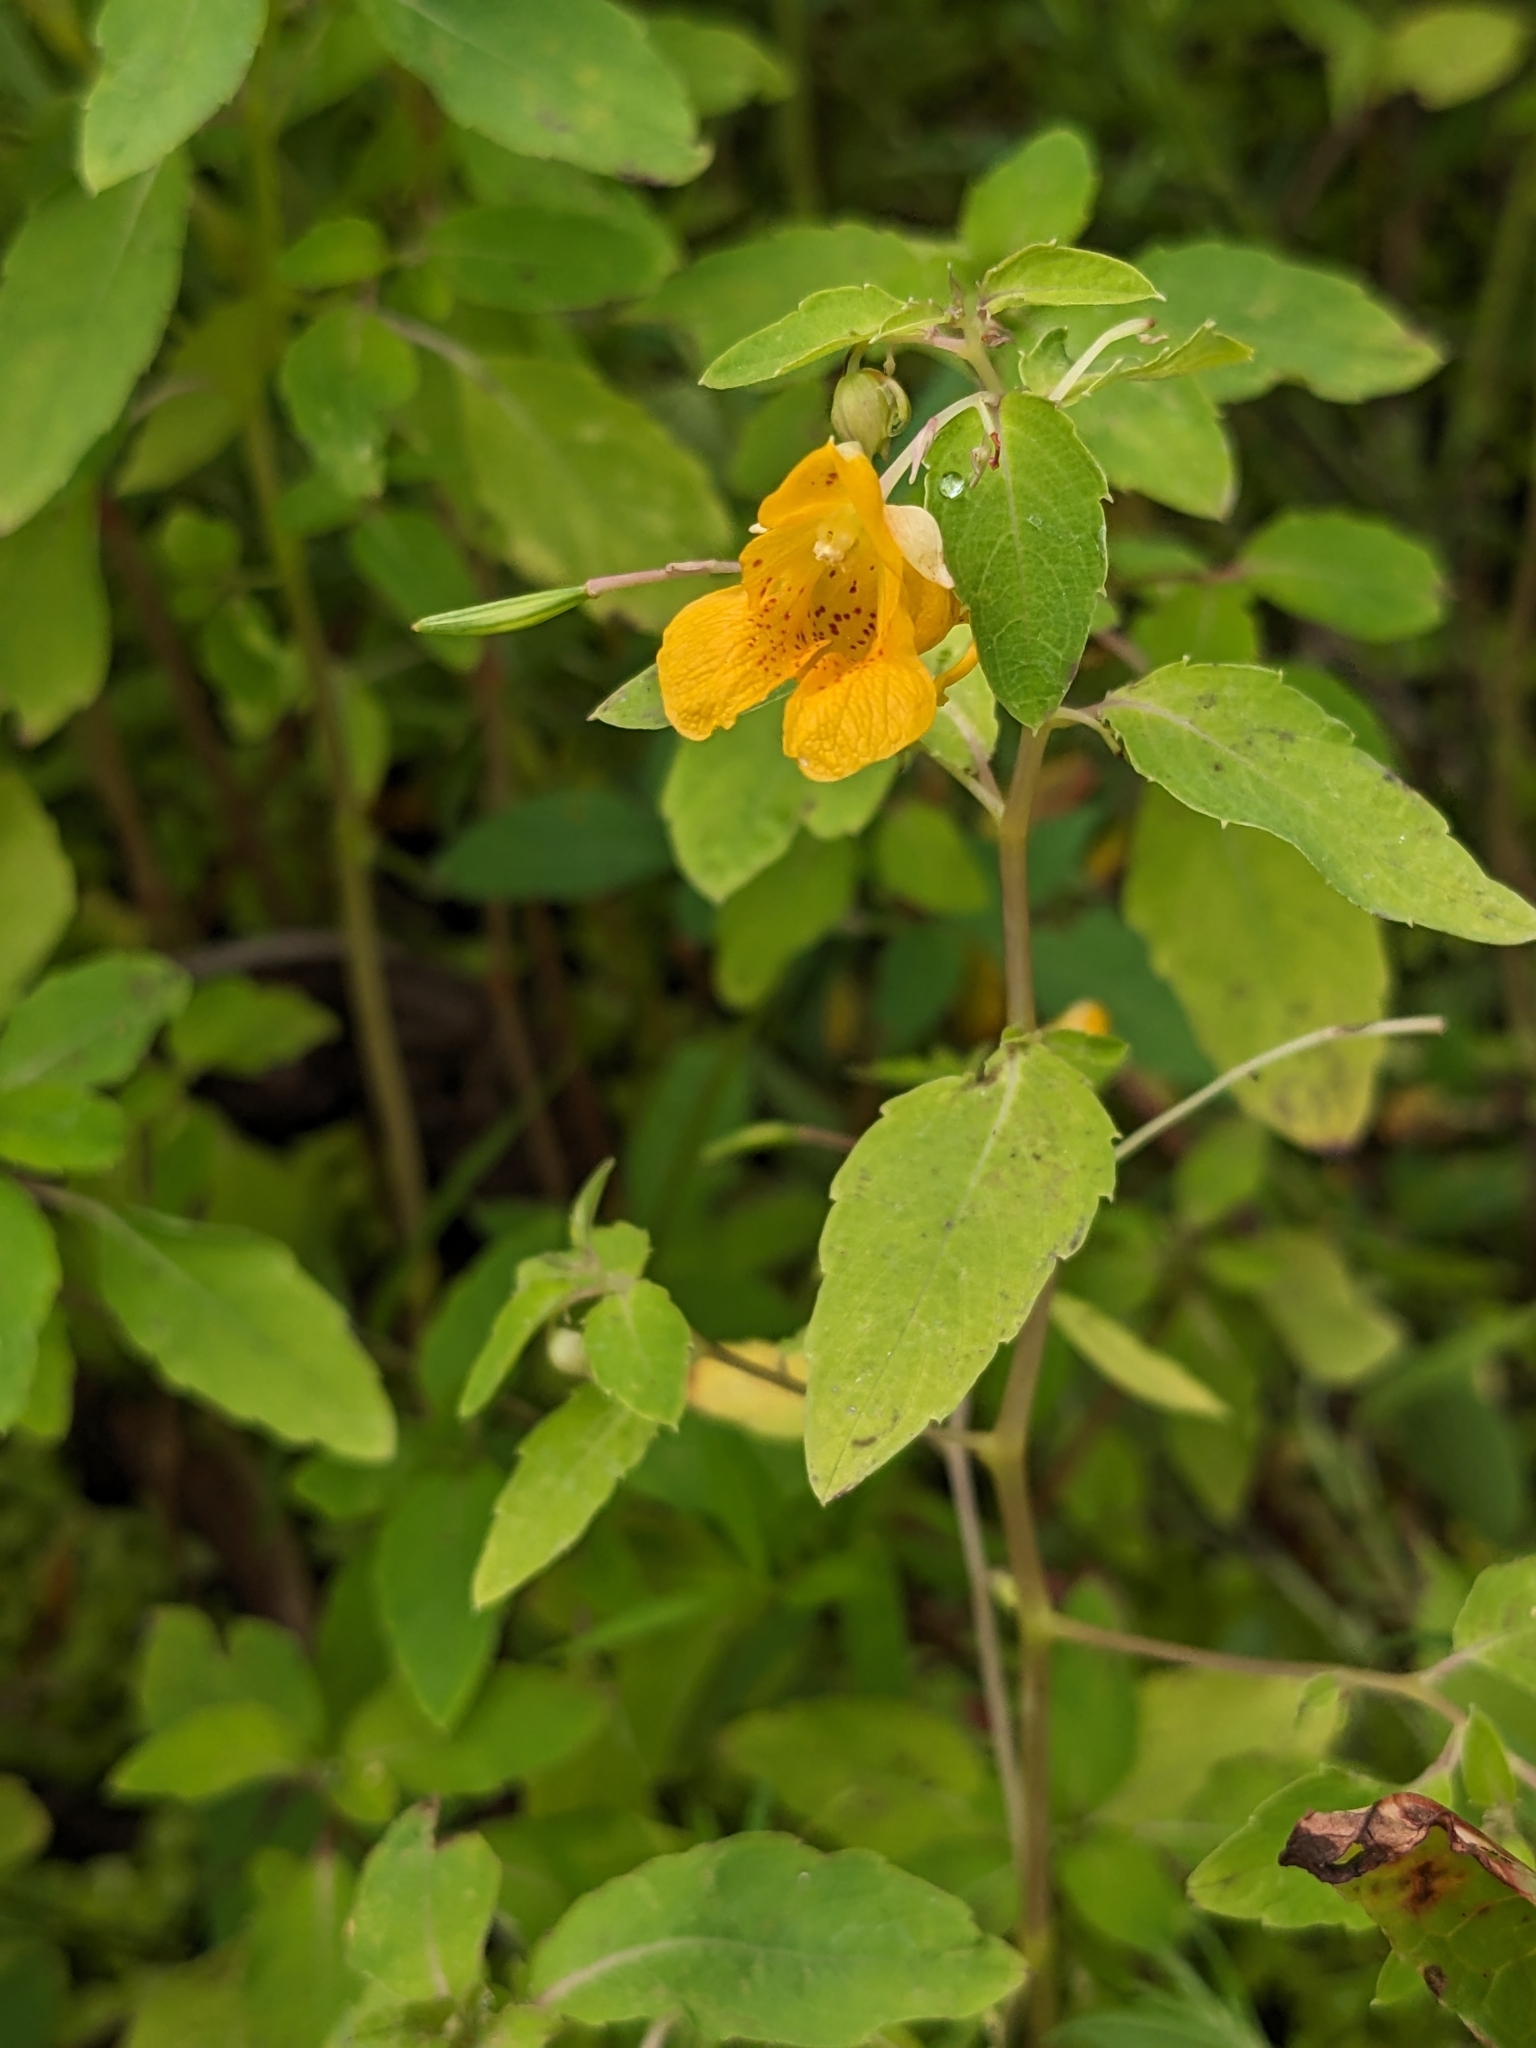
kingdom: Plantae
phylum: Tracheophyta
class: Magnoliopsida
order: Ericales
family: Balsaminaceae
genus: Impatiens
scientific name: Impatiens capensis
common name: Orange balsam
